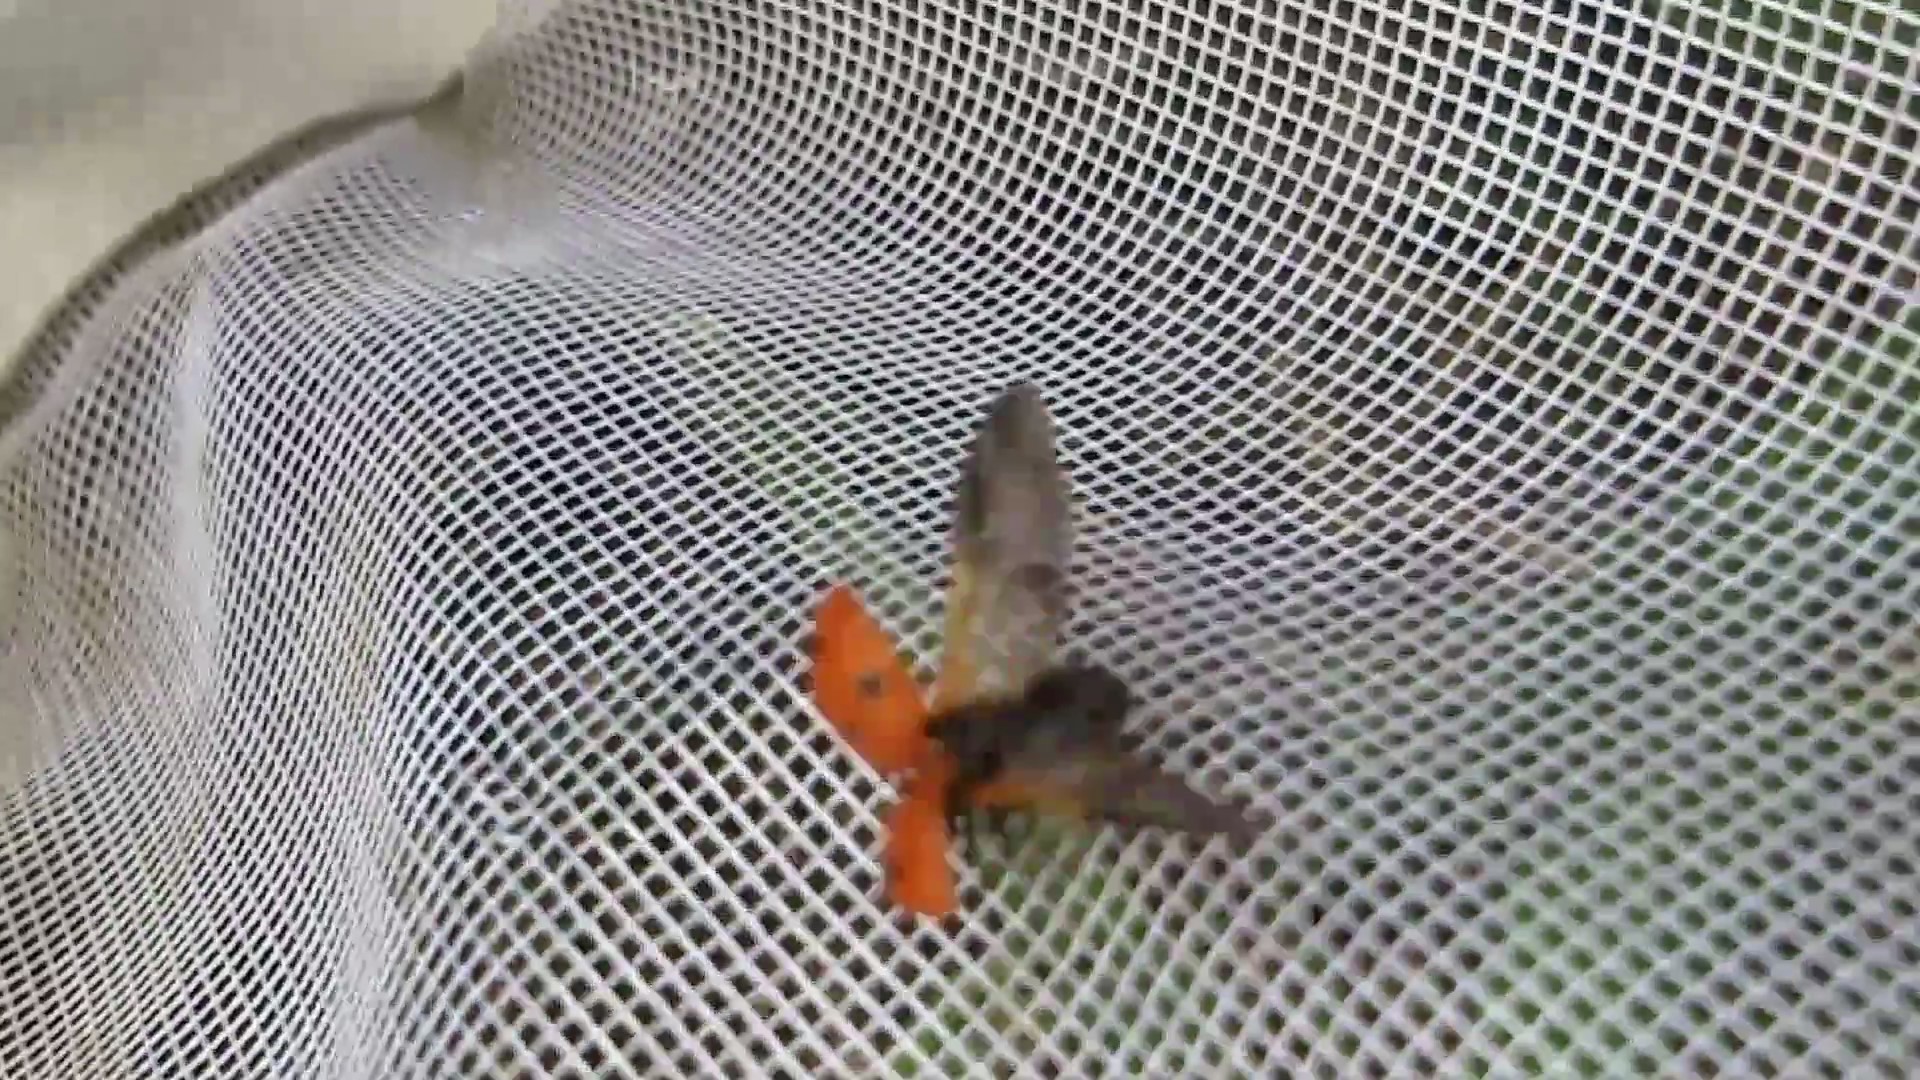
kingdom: Animalia
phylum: Arthropoda
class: Insecta
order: Coleoptera
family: Coccinellidae
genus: Coccinella
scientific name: Coccinella septempunctata
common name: Sevenspotted lady beetle
